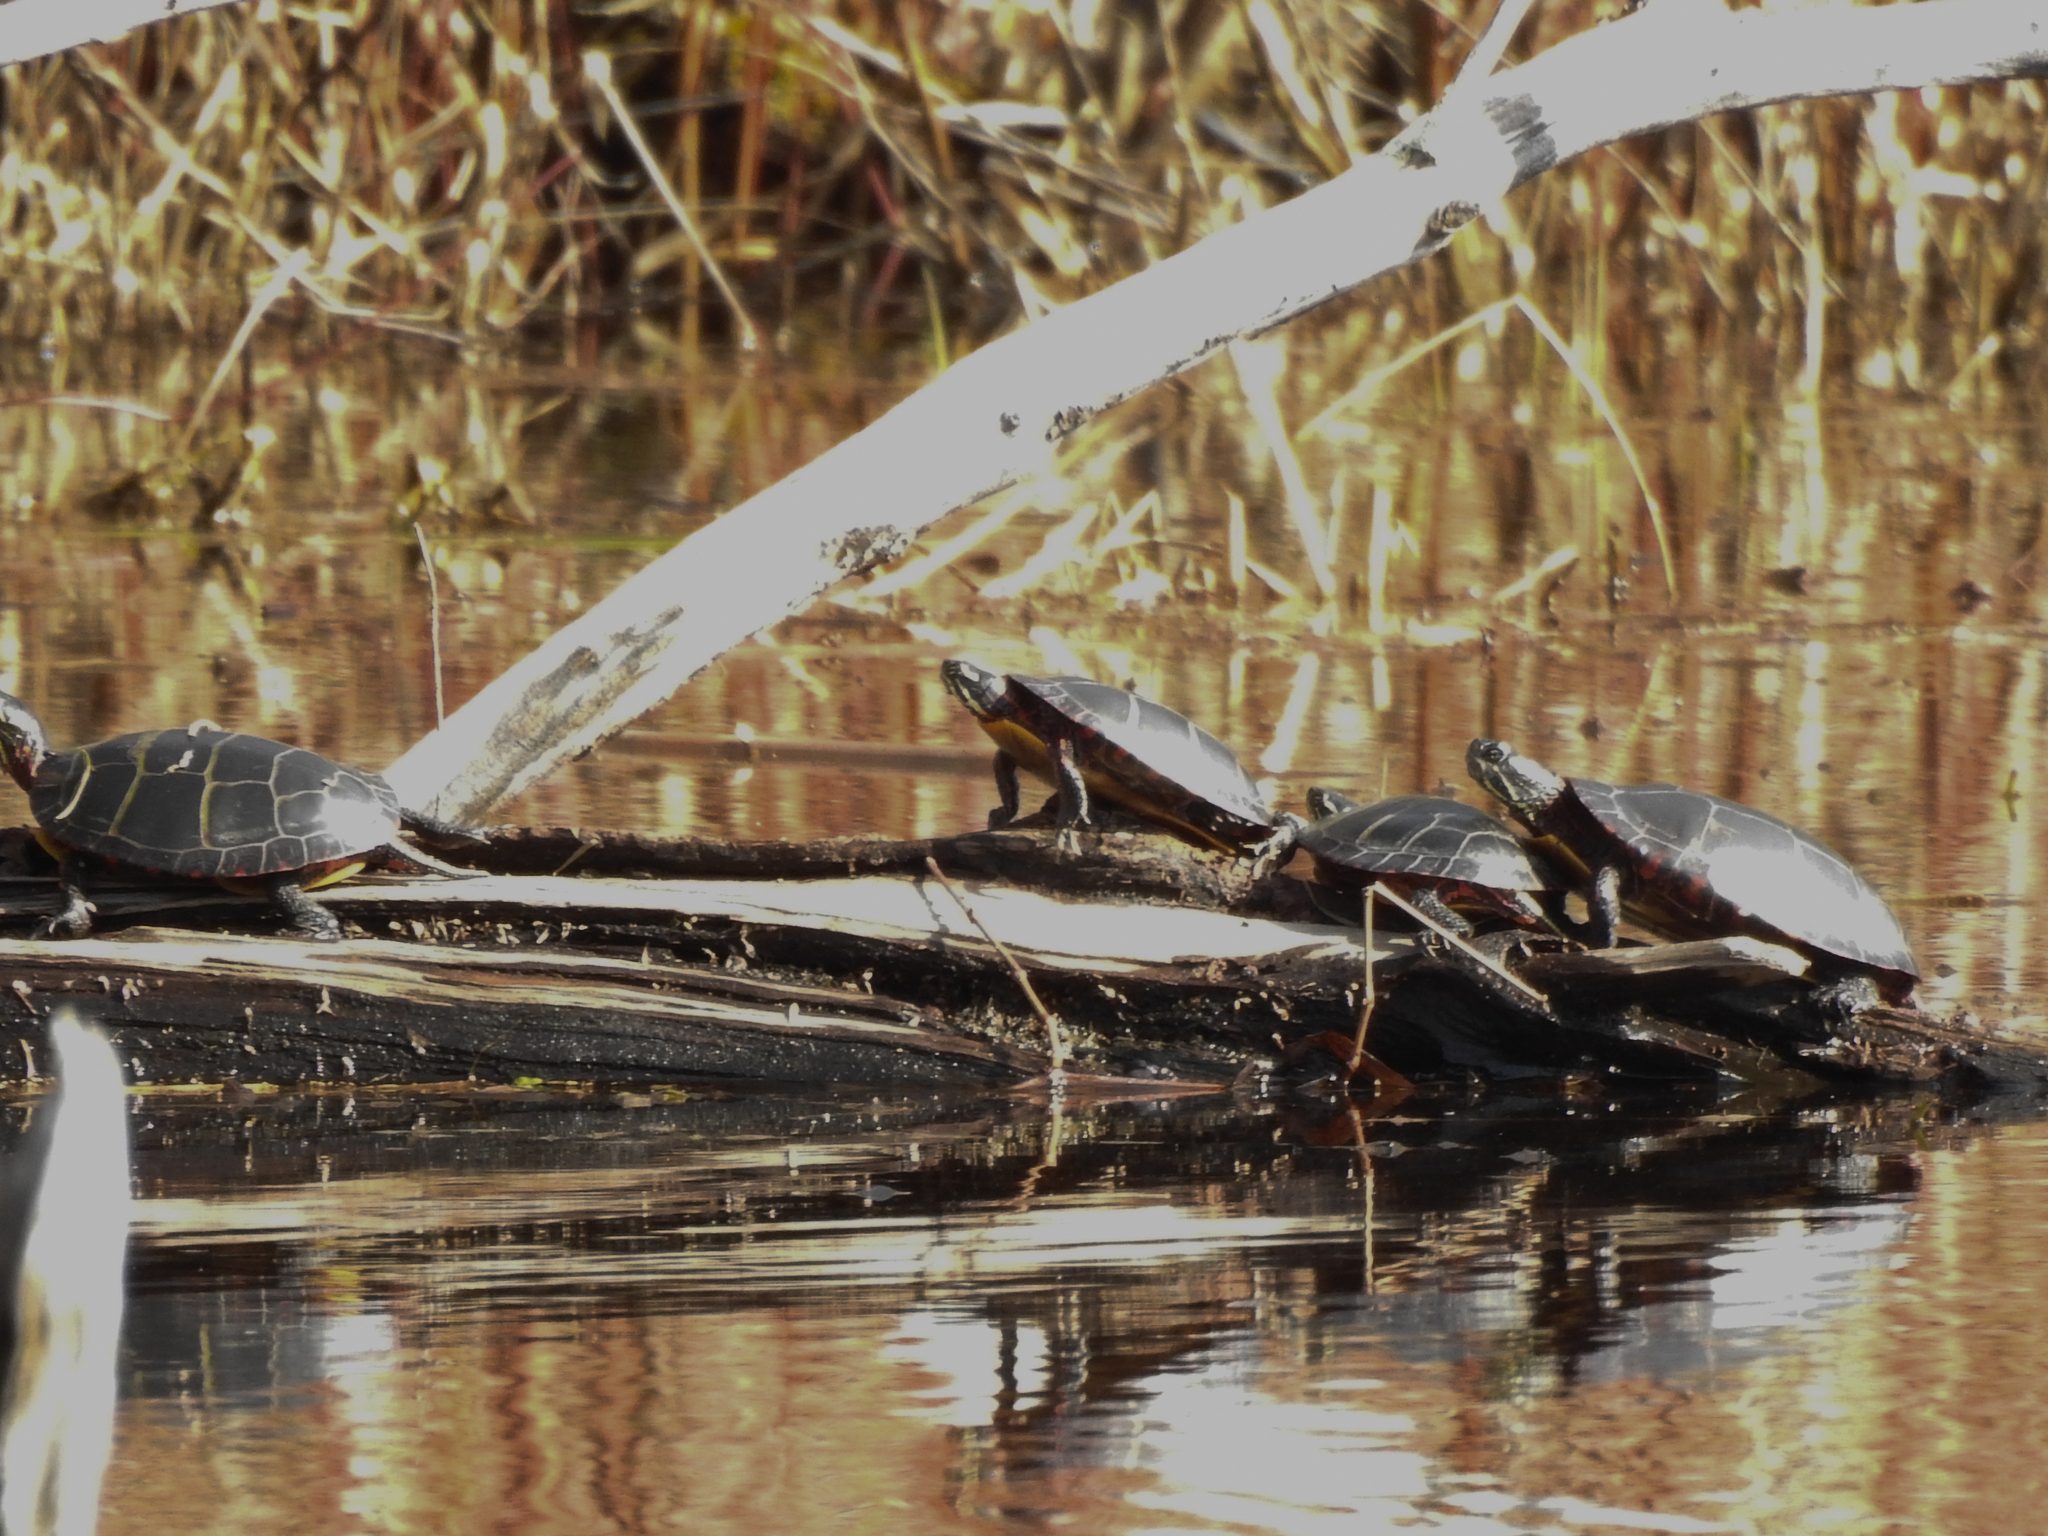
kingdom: Animalia
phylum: Chordata
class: Testudines
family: Emydidae
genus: Chrysemys
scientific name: Chrysemys picta
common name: Painted turtle
